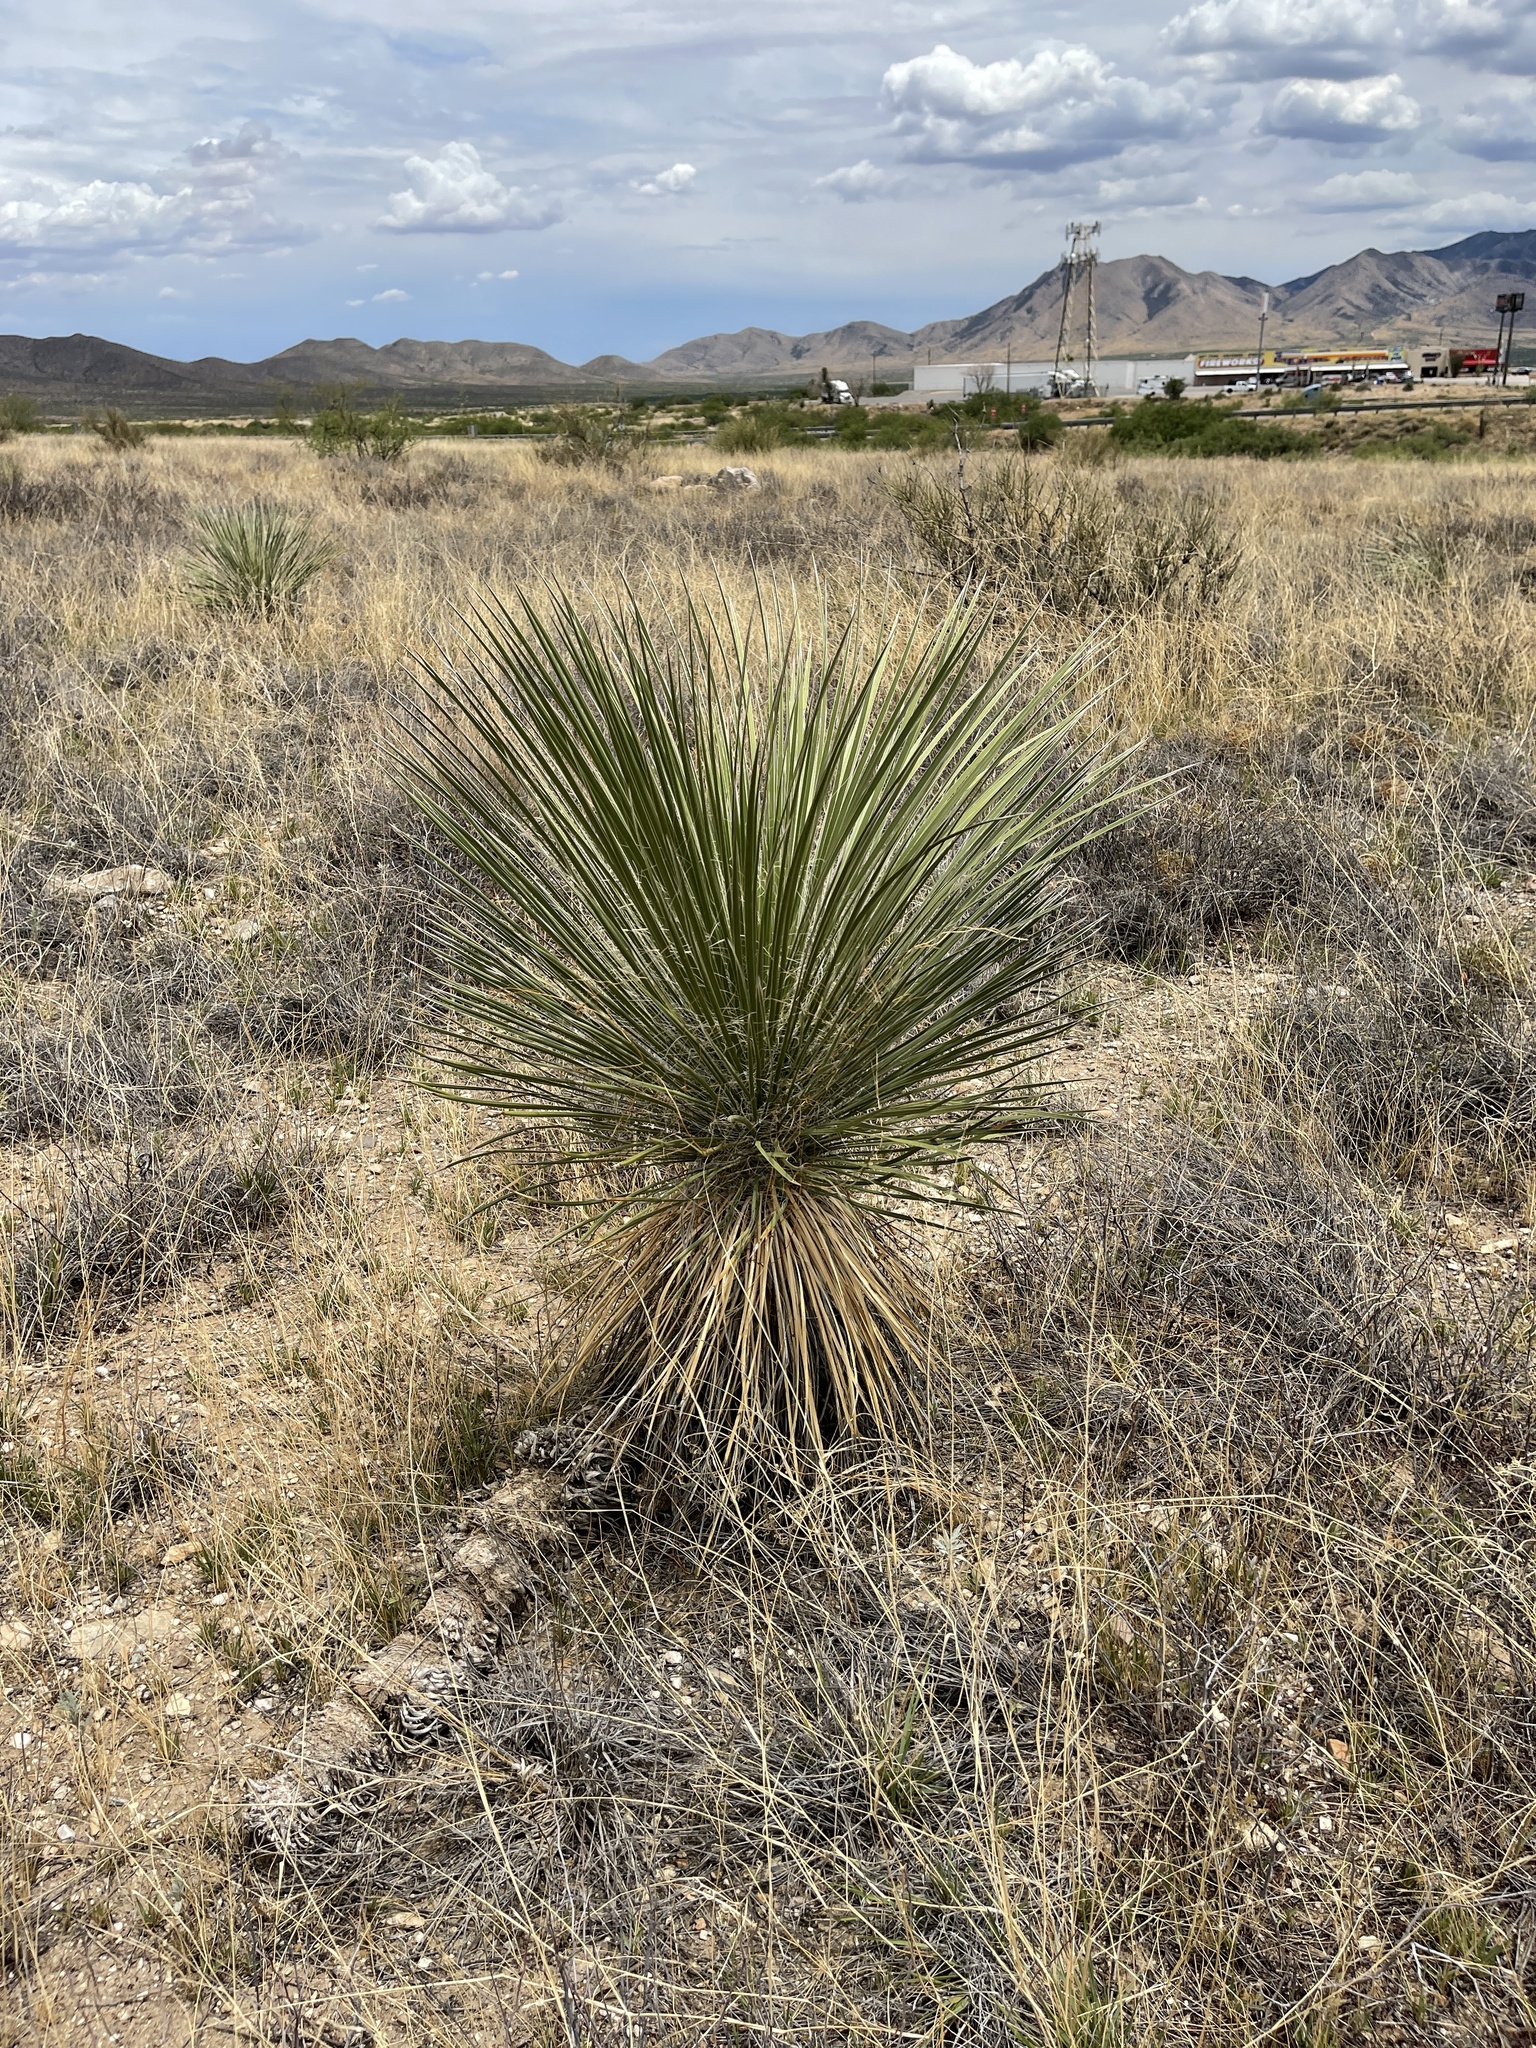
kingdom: Plantae
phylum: Tracheophyta
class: Liliopsida
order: Asparagales
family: Asparagaceae
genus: Yucca
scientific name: Yucca elata
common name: Palmella
